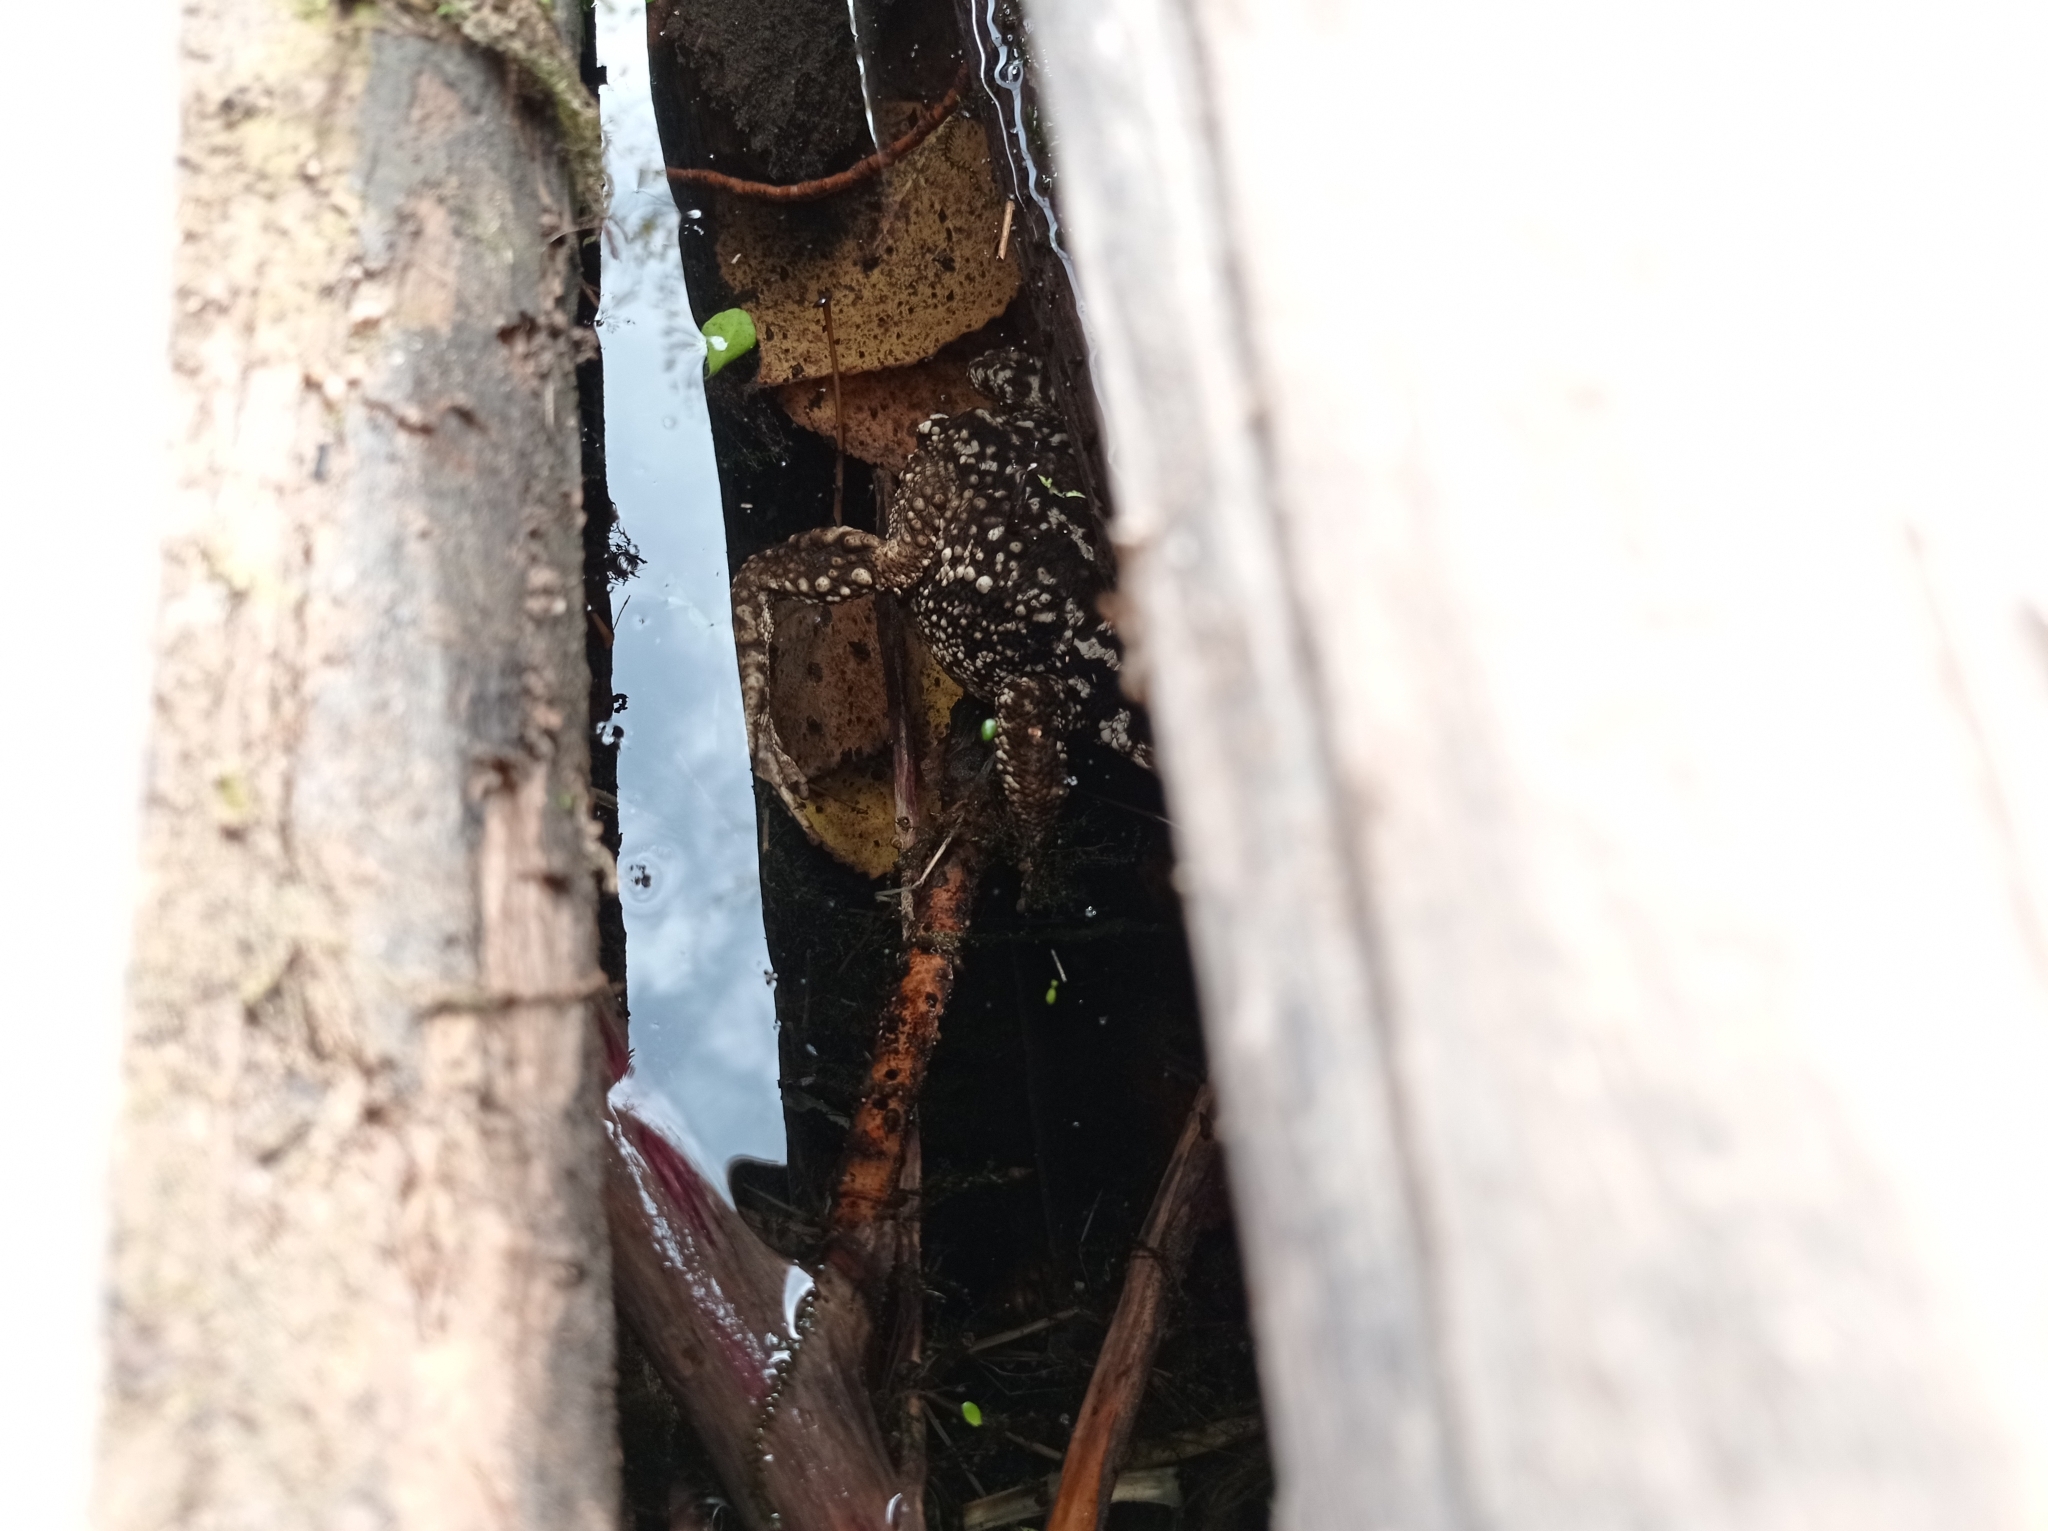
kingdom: Animalia
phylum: Chordata
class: Amphibia
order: Anura
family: Bufonidae
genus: Bufo
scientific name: Bufo spinosus
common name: Western common toad
